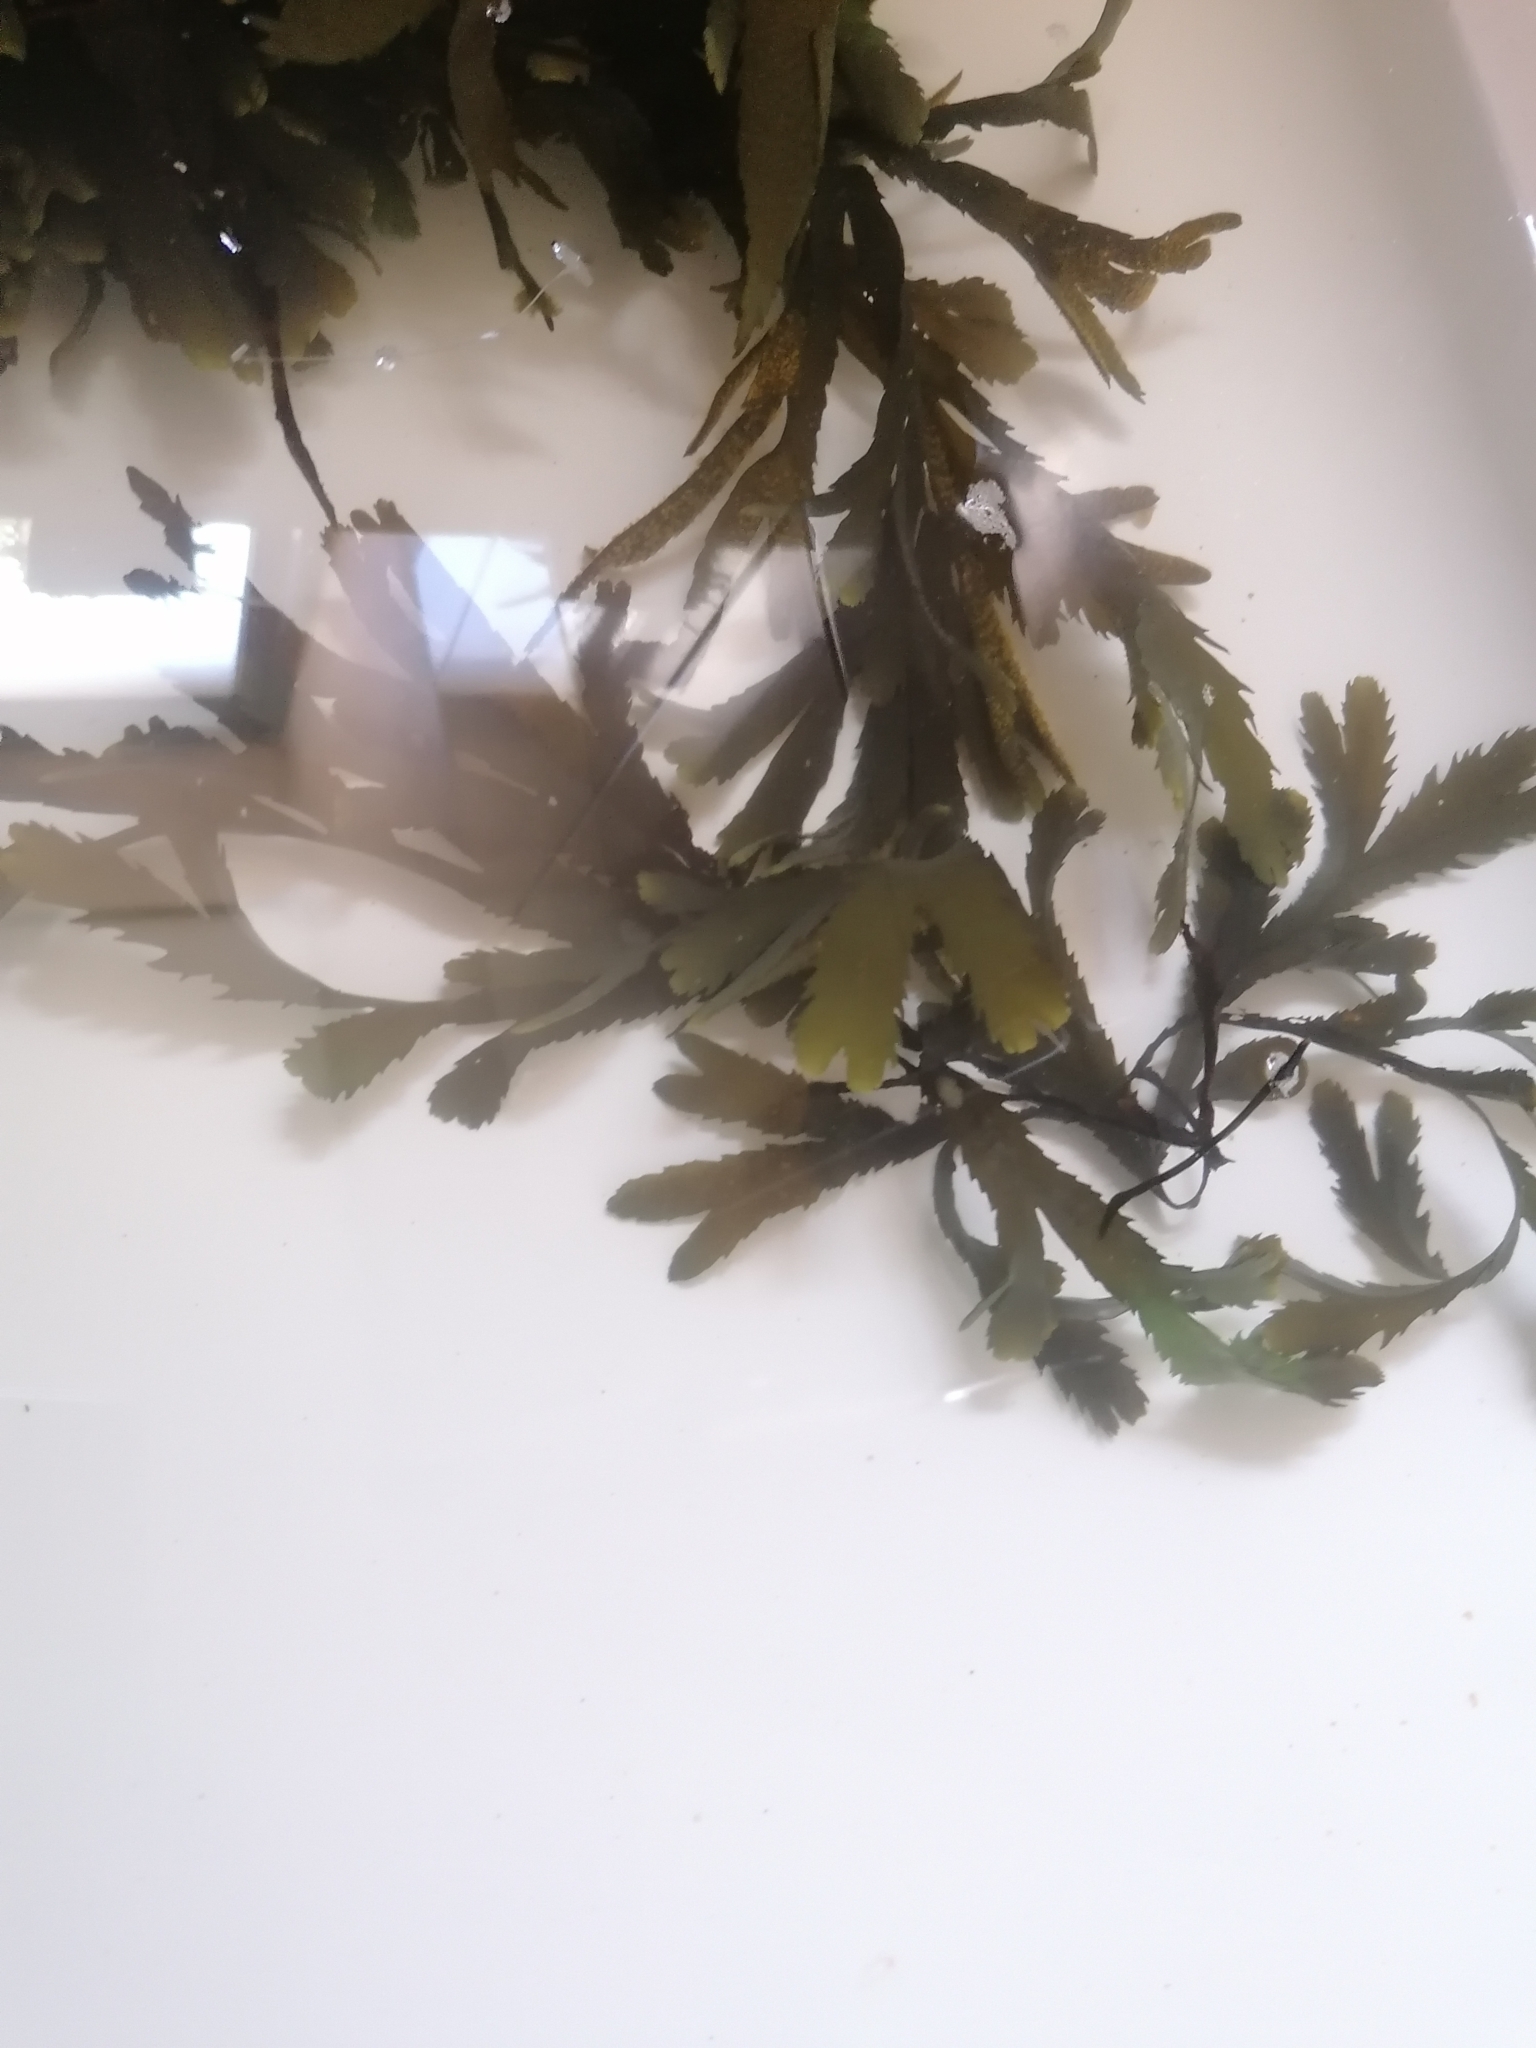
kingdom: Chromista
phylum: Ochrophyta
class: Phaeophyceae
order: Fucales
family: Fucaceae
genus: Fucus
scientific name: Fucus serratus
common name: Toothed wrack
